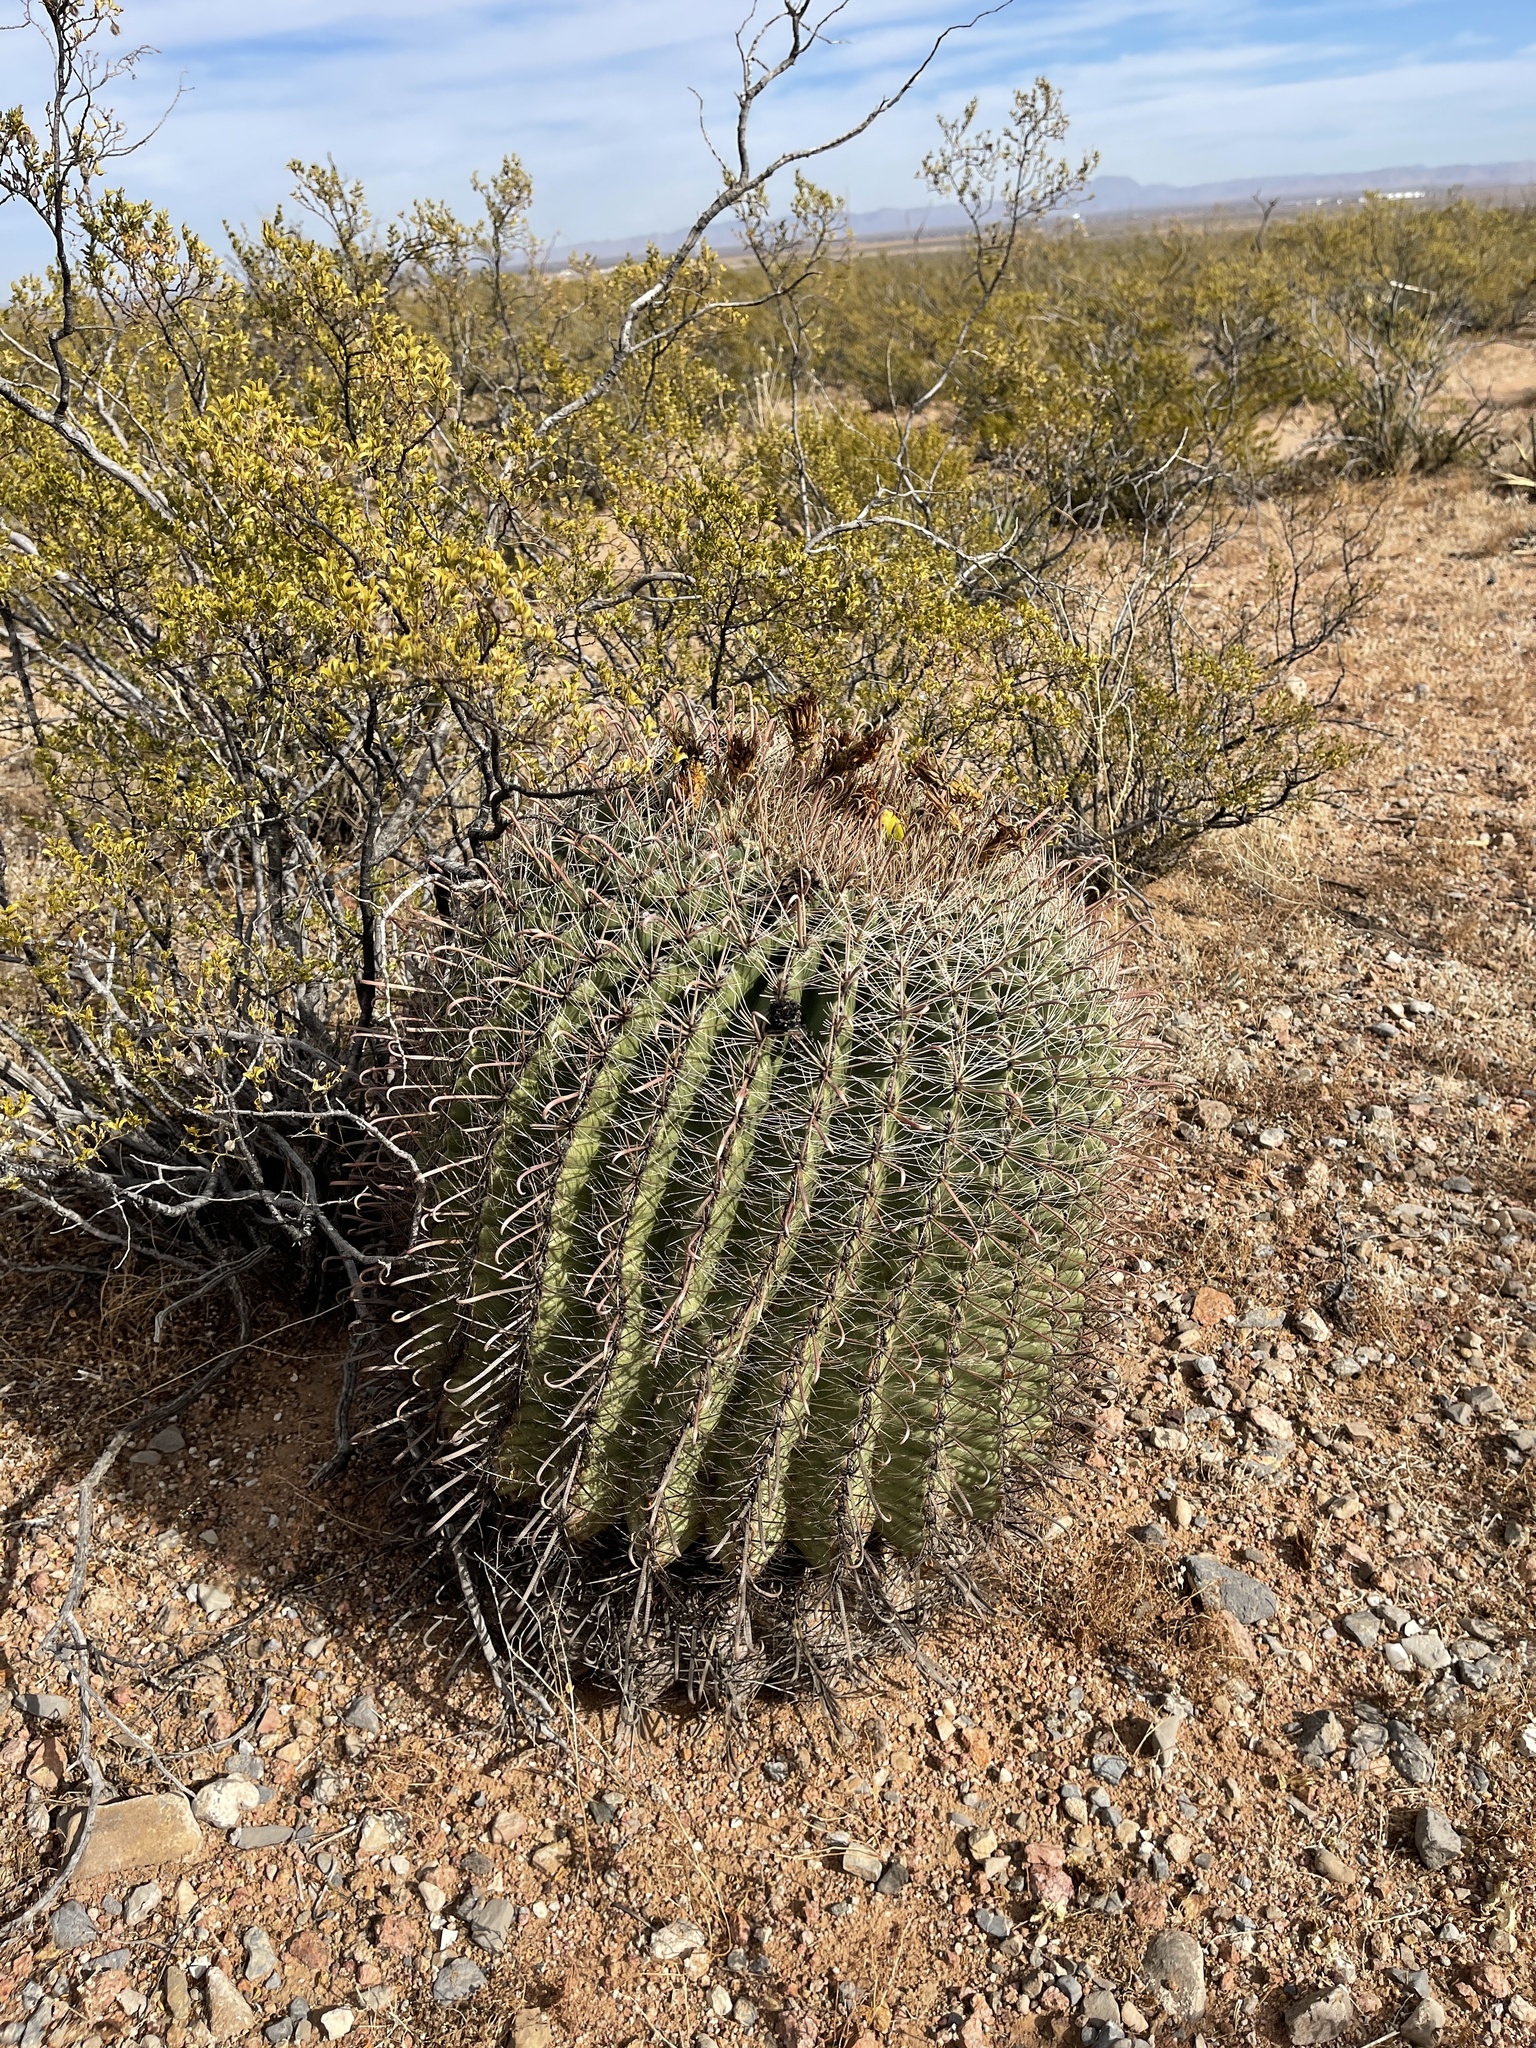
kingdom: Plantae
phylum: Tracheophyta
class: Magnoliopsida
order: Caryophyllales
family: Cactaceae
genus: Ferocactus
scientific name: Ferocactus wislizeni
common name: Candy barrel cactus
